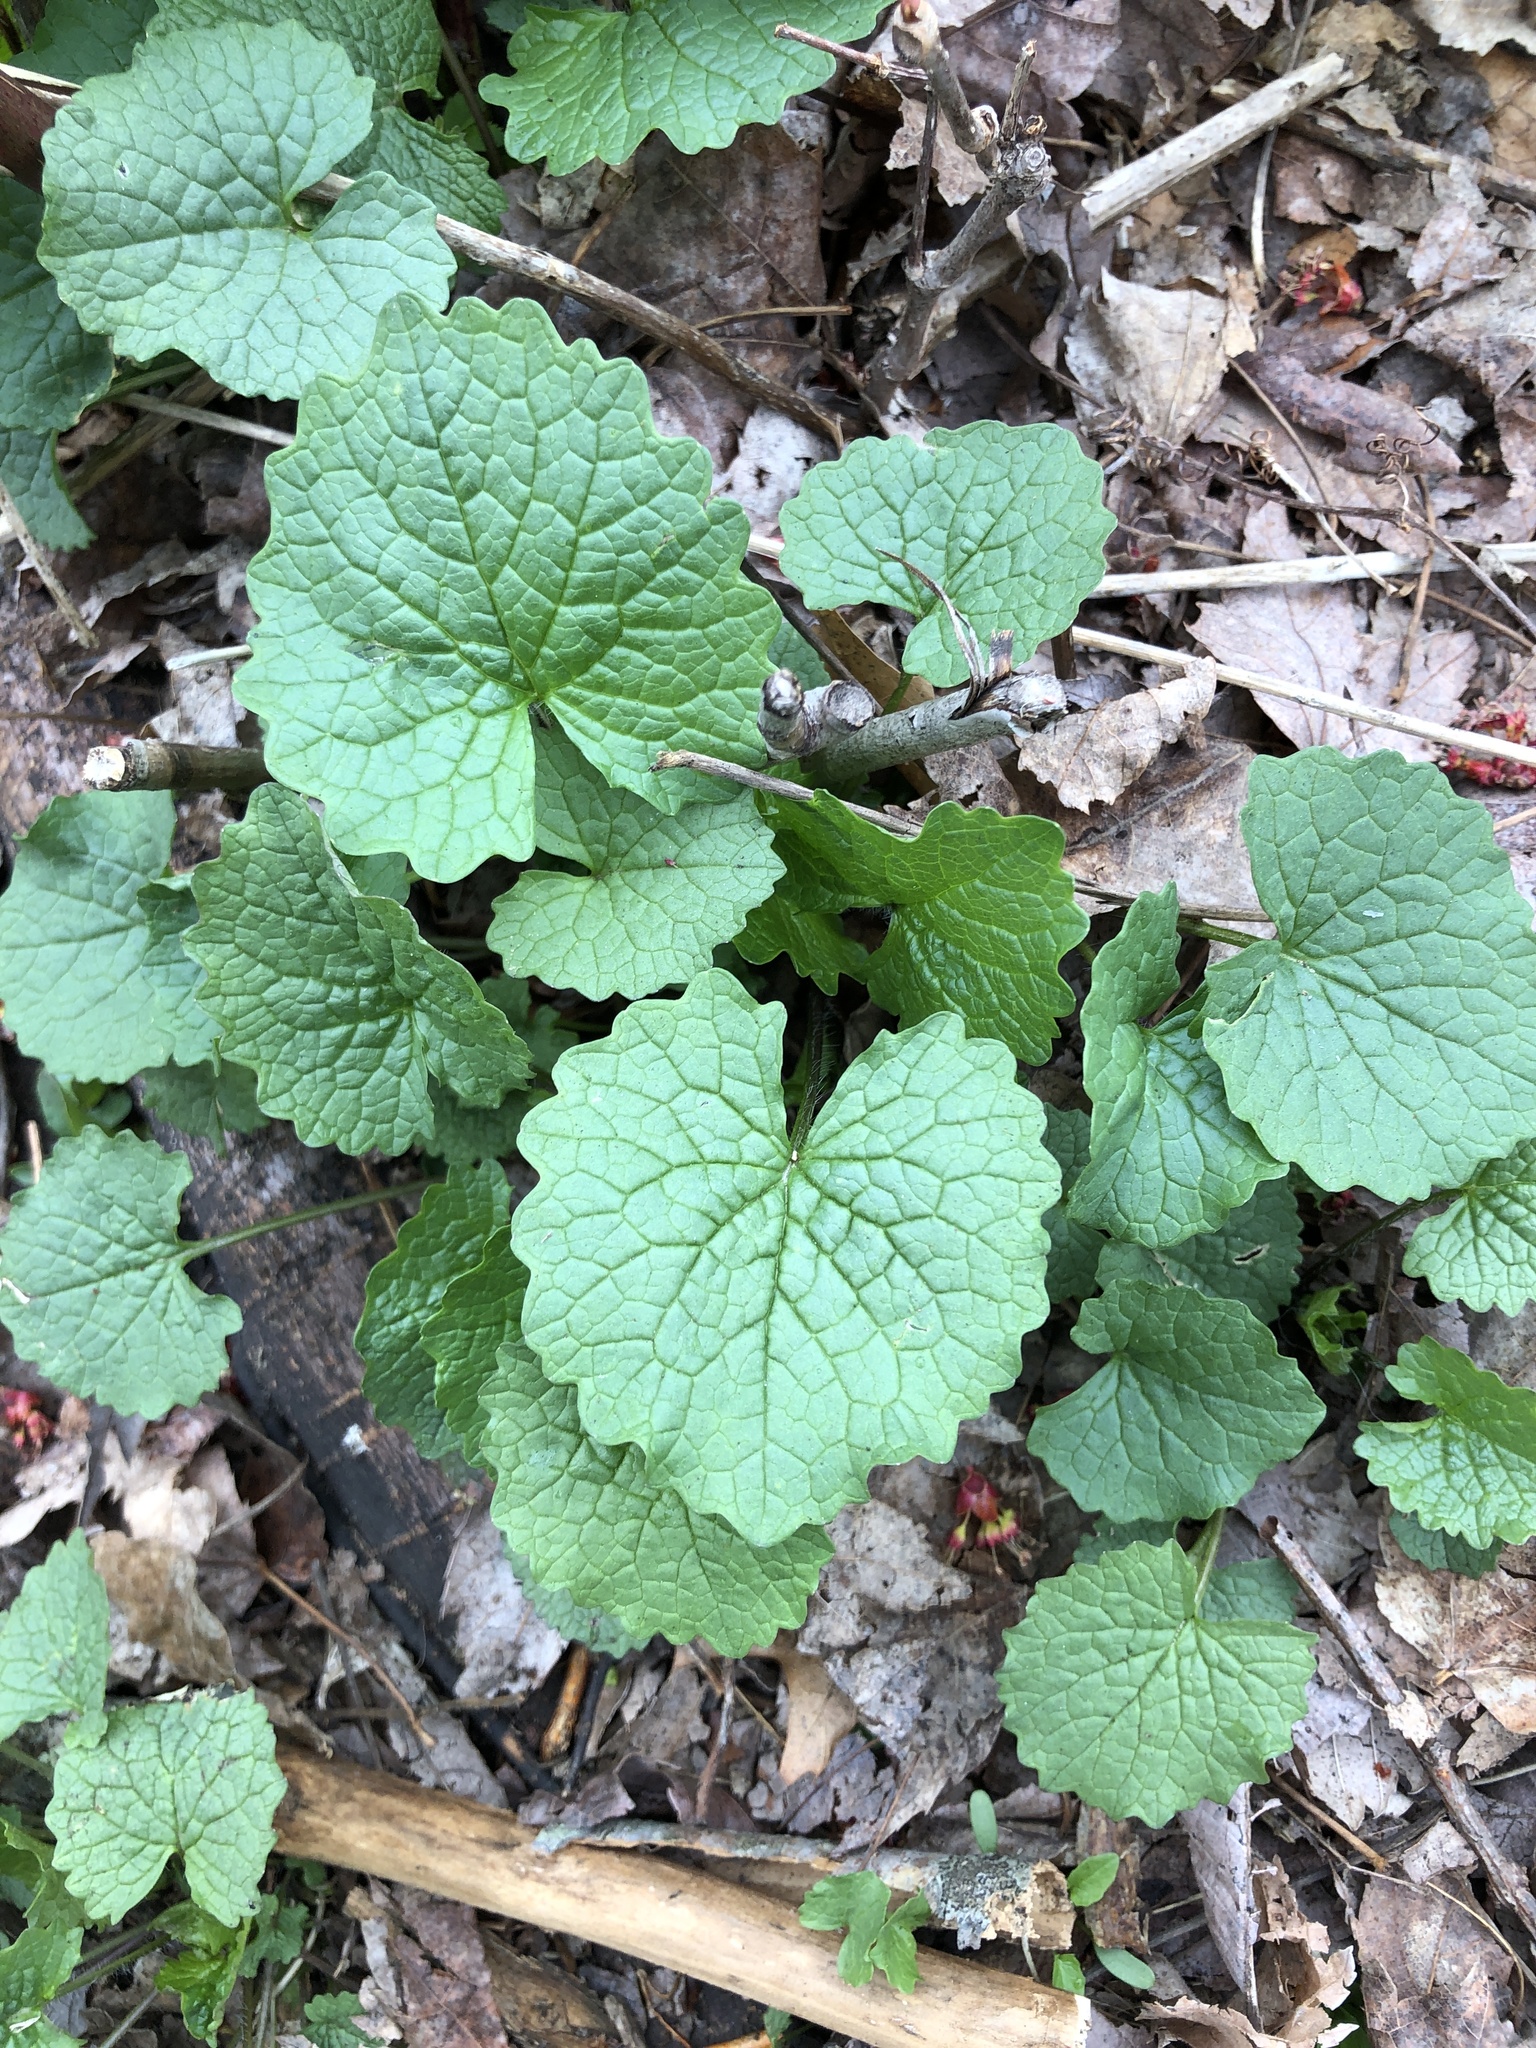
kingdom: Plantae
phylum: Tracheophyta
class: Magnoliopsida
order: Brassicales
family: Brassicaceae
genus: Alliaria
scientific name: Alliaria petiolata
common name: Garlic mustard
